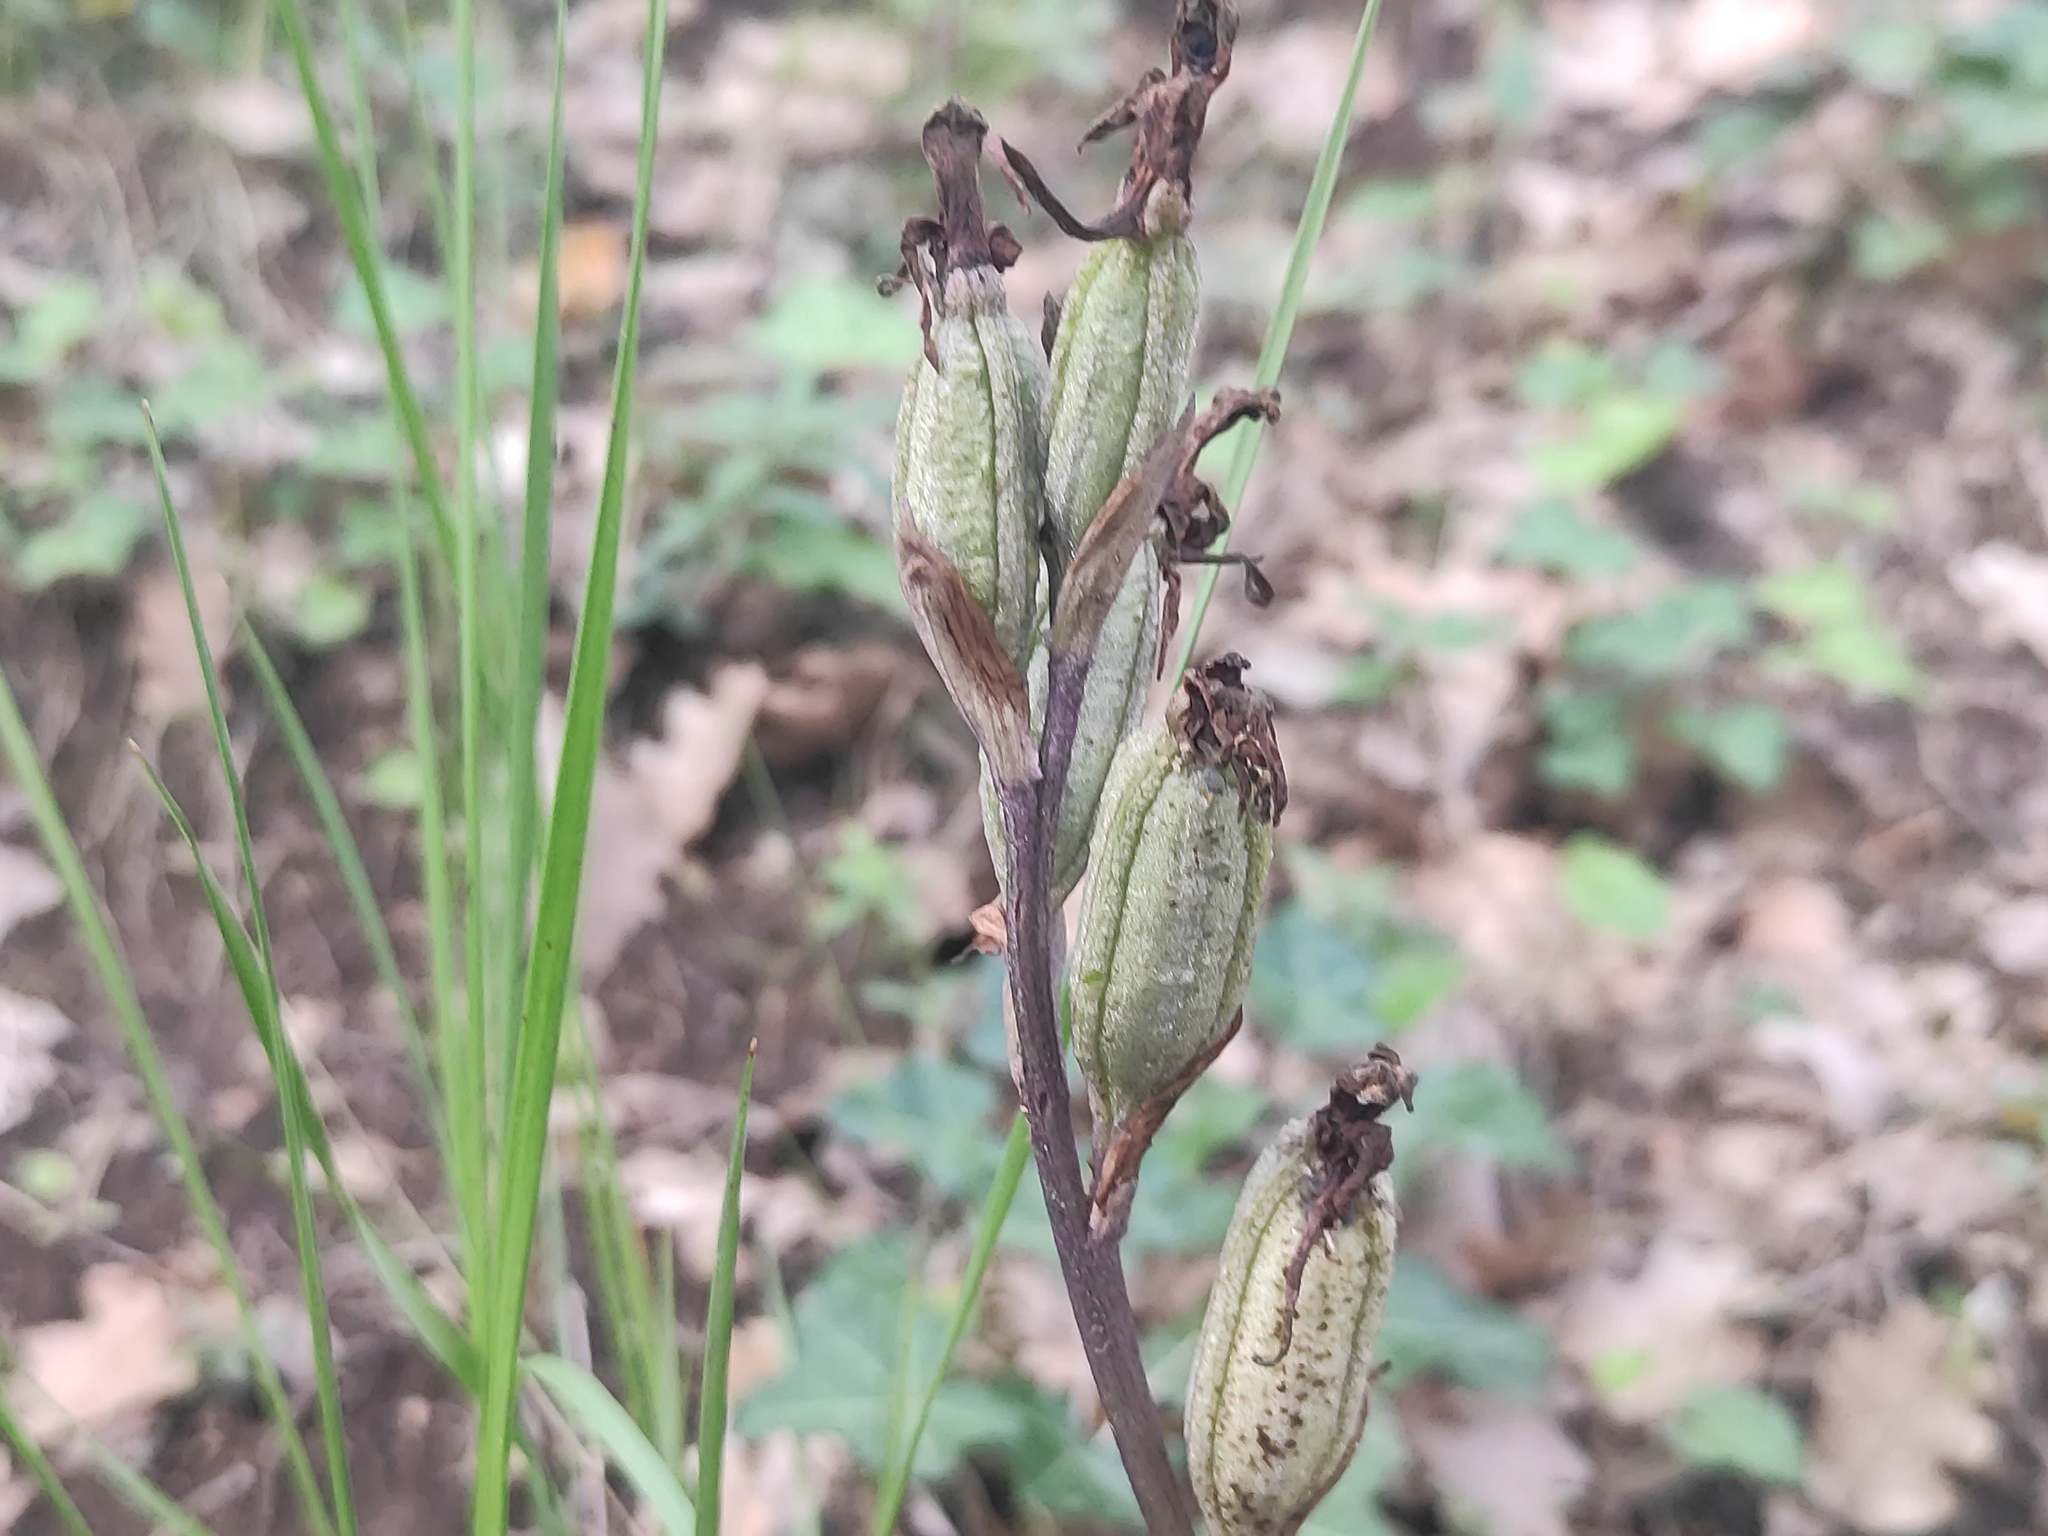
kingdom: Plantae
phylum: Tracheophyta
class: Liliopsida
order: Asparagales
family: Orchidaceae
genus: Limodorum
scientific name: Limodorum abortivum
